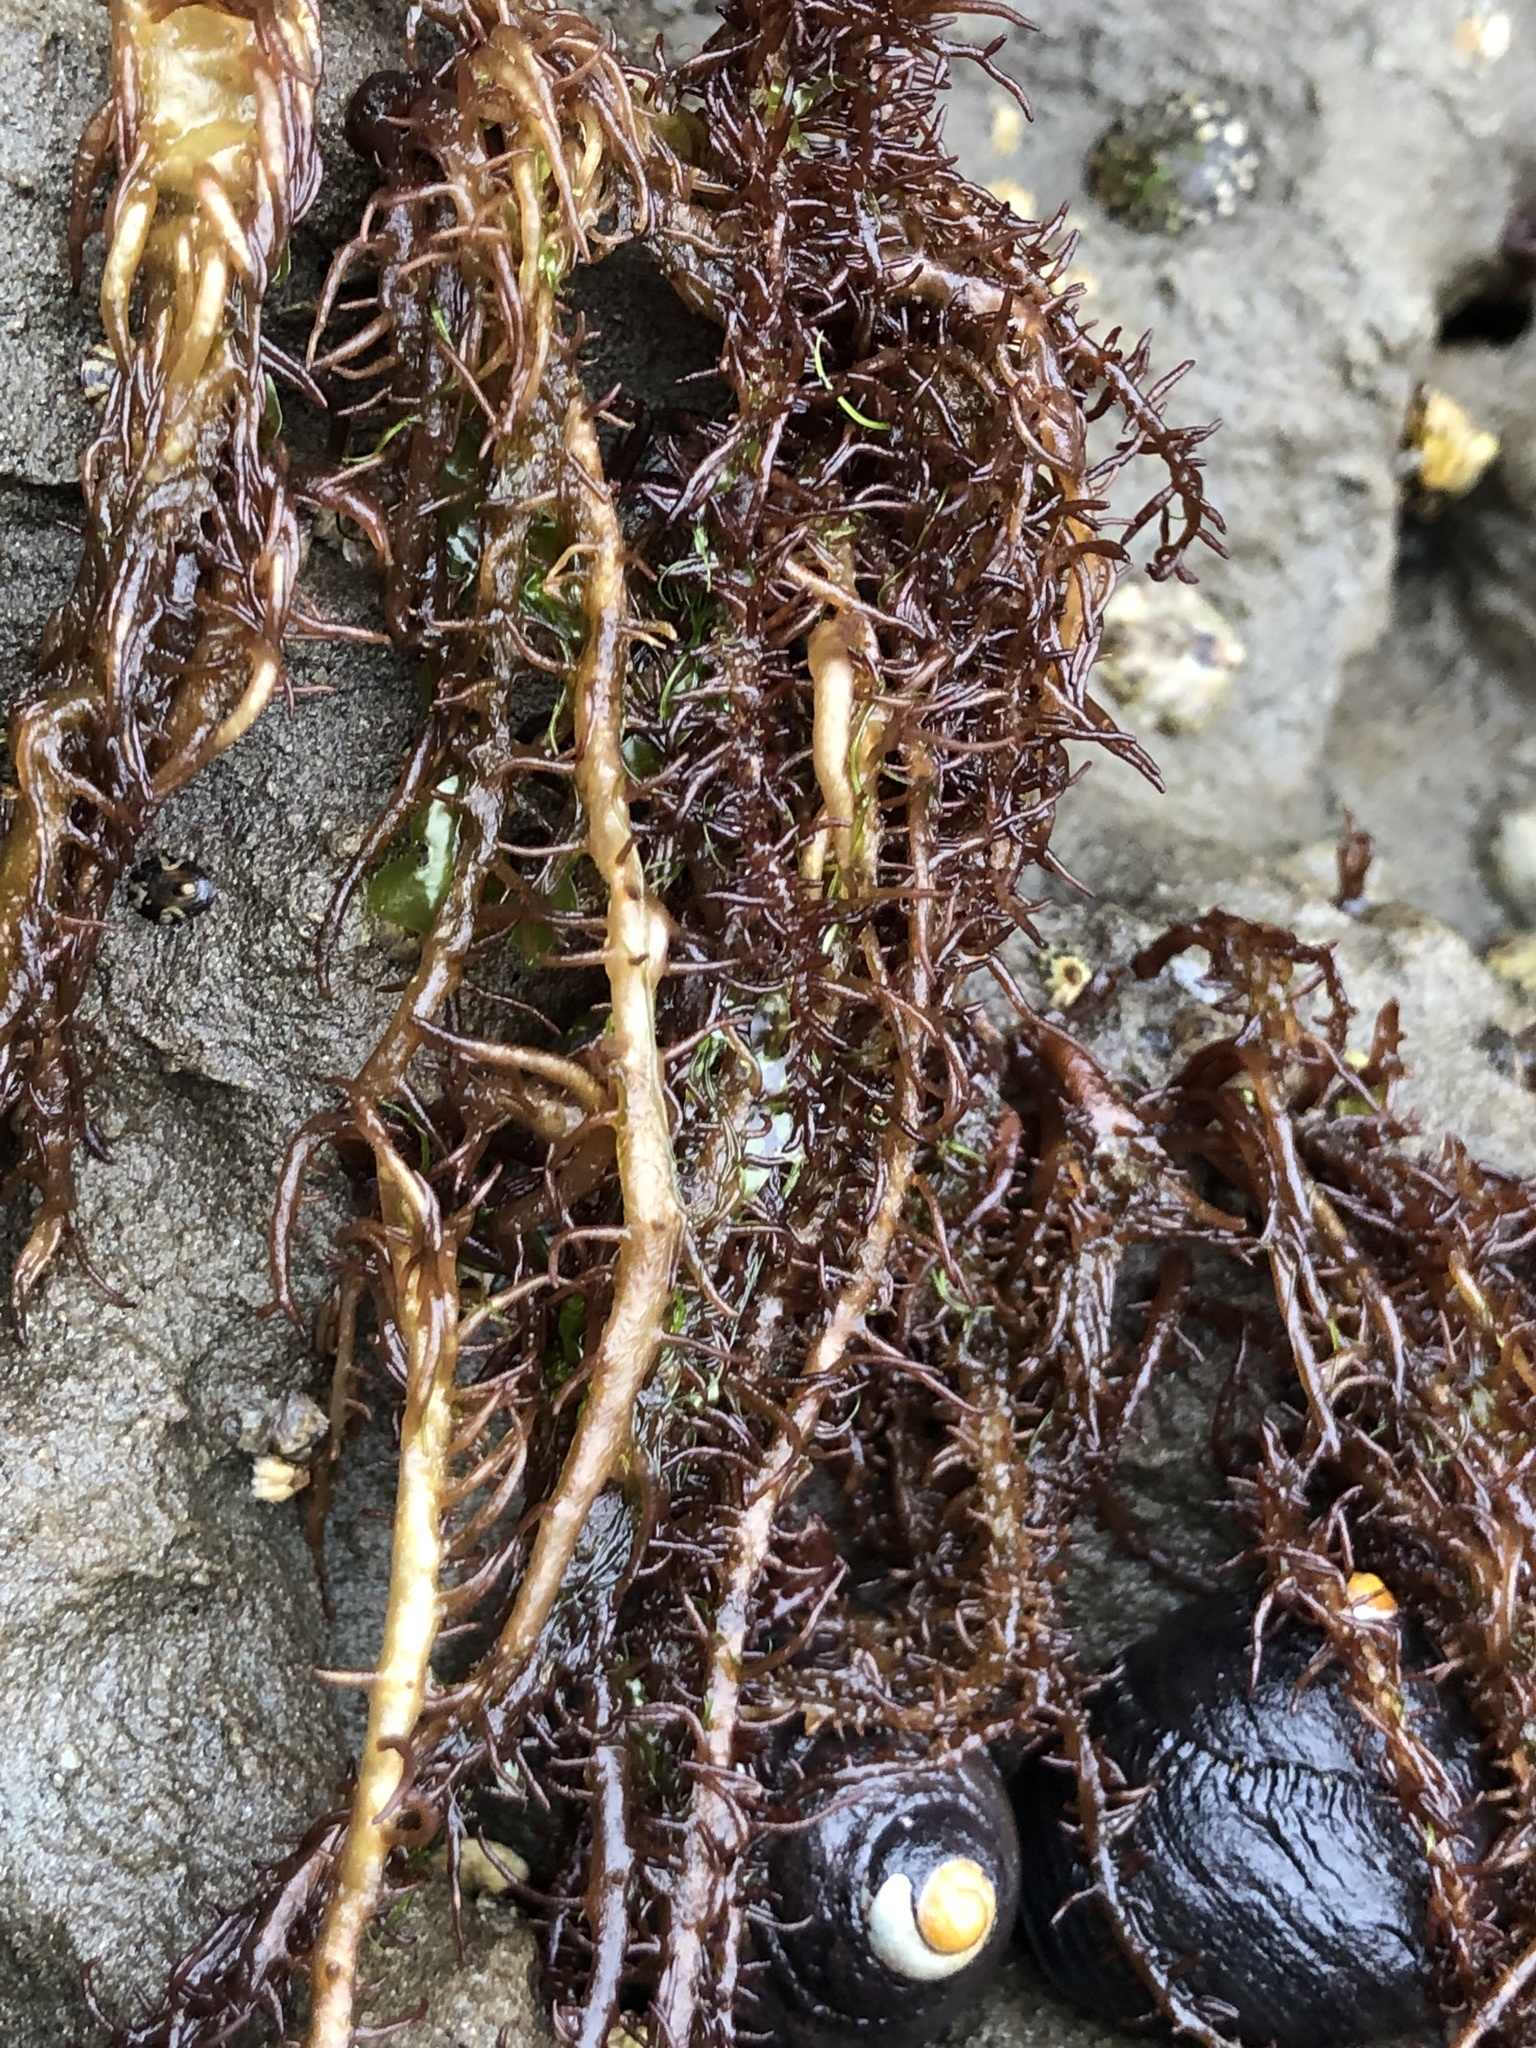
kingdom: Plantae
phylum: Rhodophyta
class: Florideophyceae
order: Nemaliales
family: Liagoraceae
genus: Cumagloia
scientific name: Cumagloia andersonii
